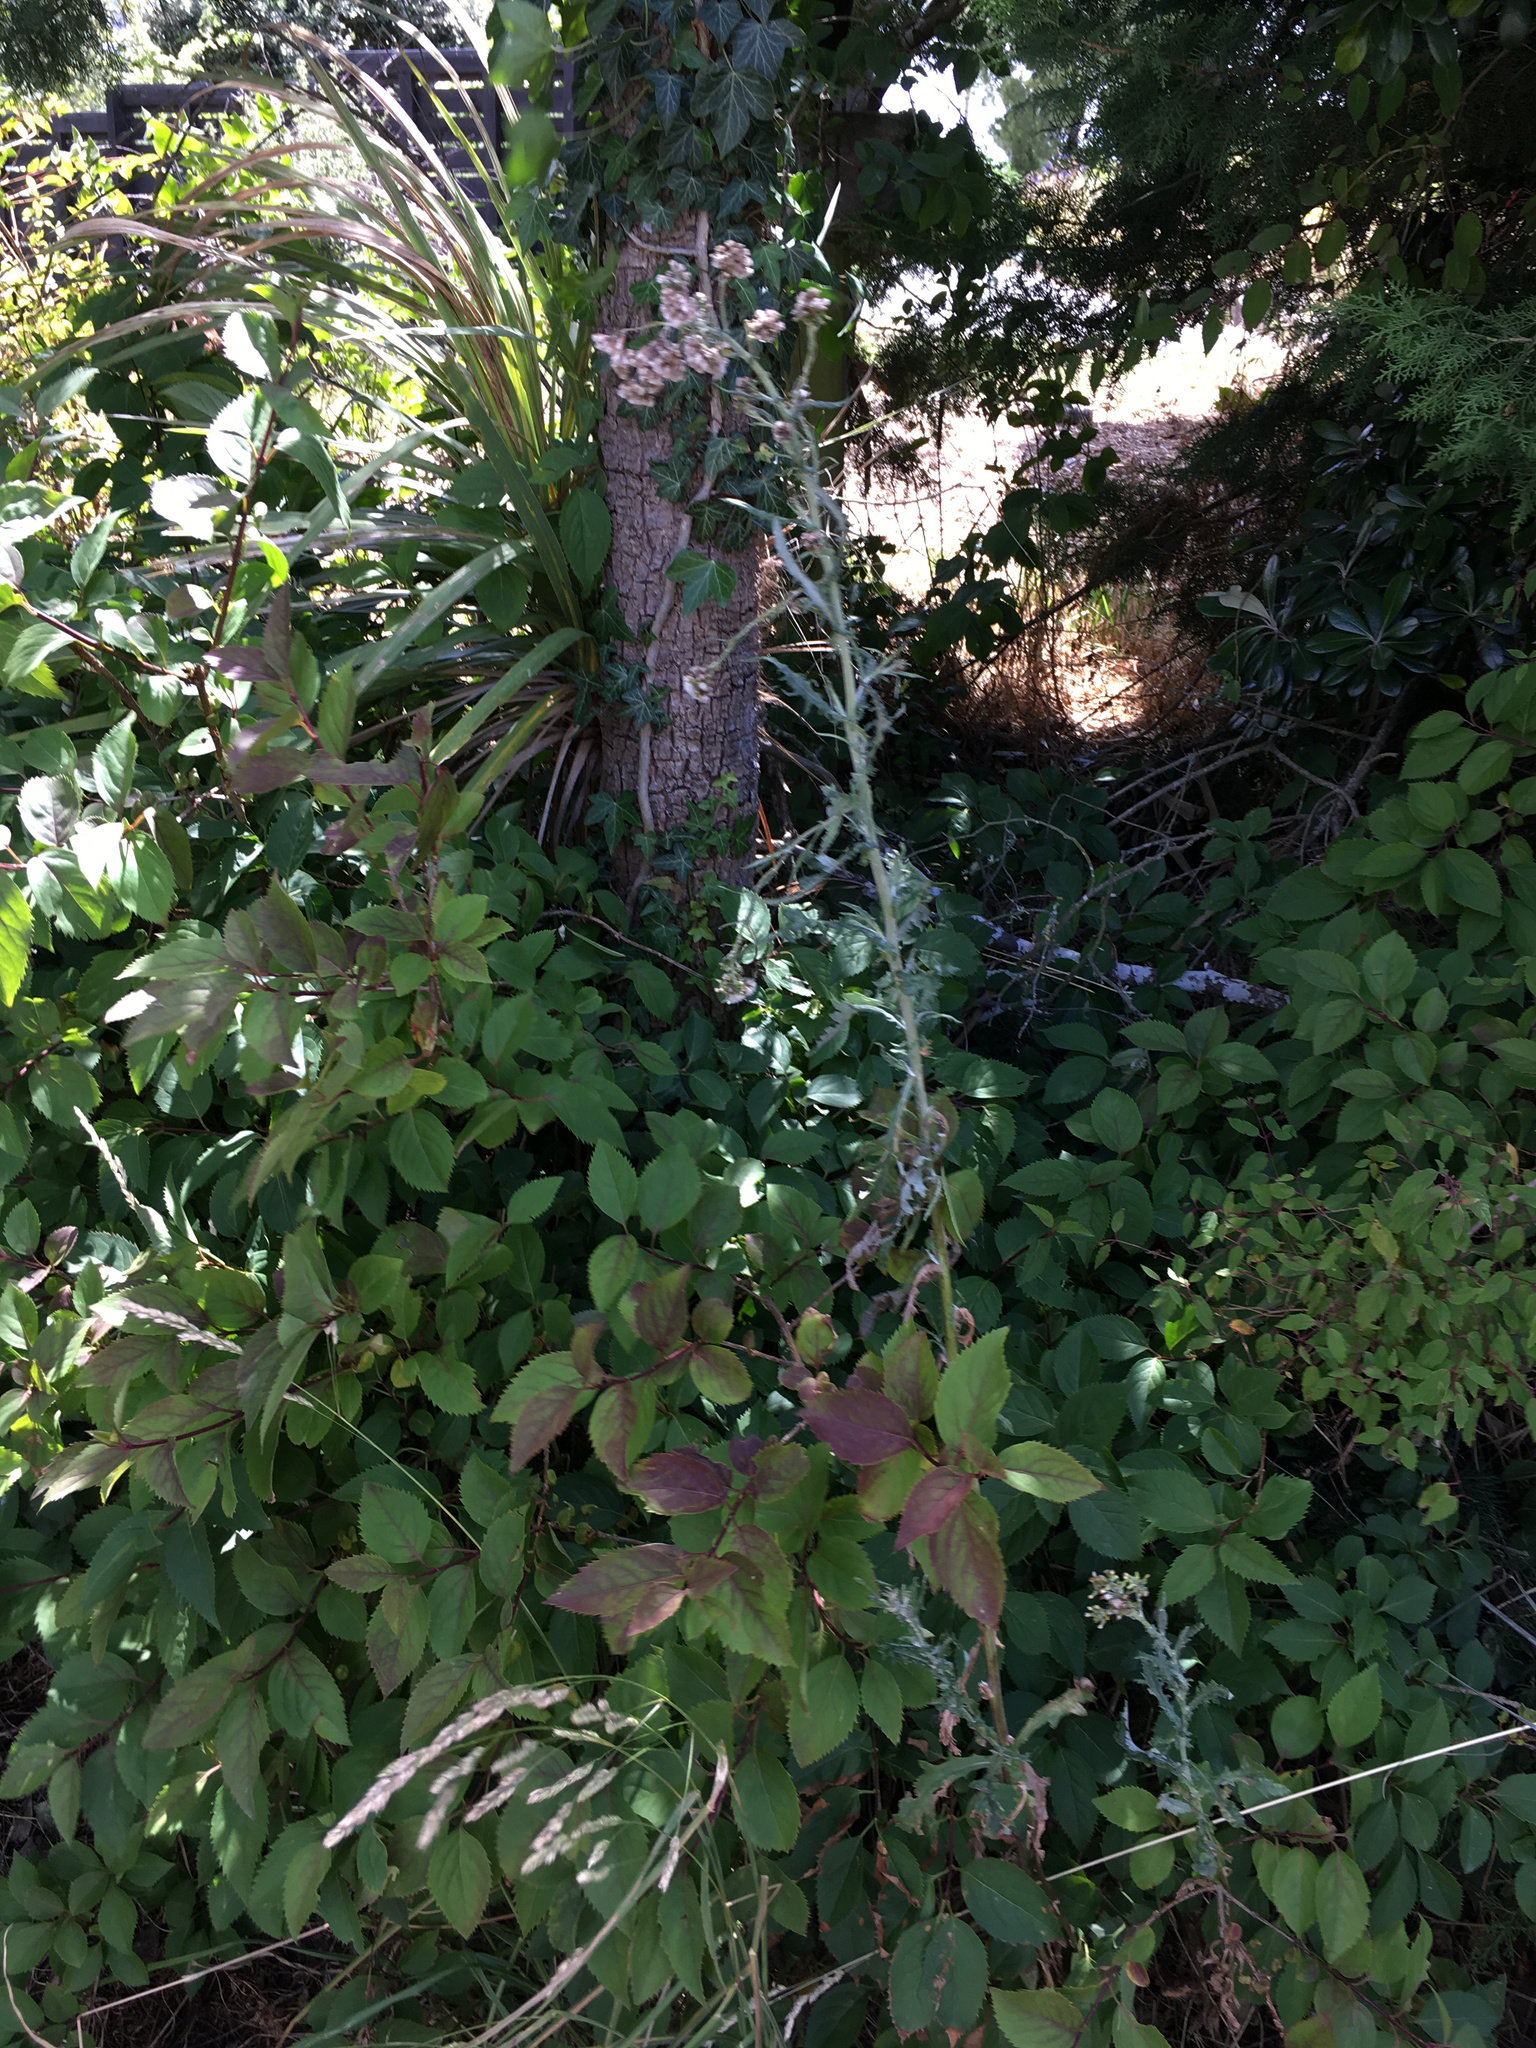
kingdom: Plantae
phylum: Tracheophyta
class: Magnoliopsida
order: Asterales
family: Asteraceae
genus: Senecio
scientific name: Senecio glomeratus
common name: Cutleaf burnweed
